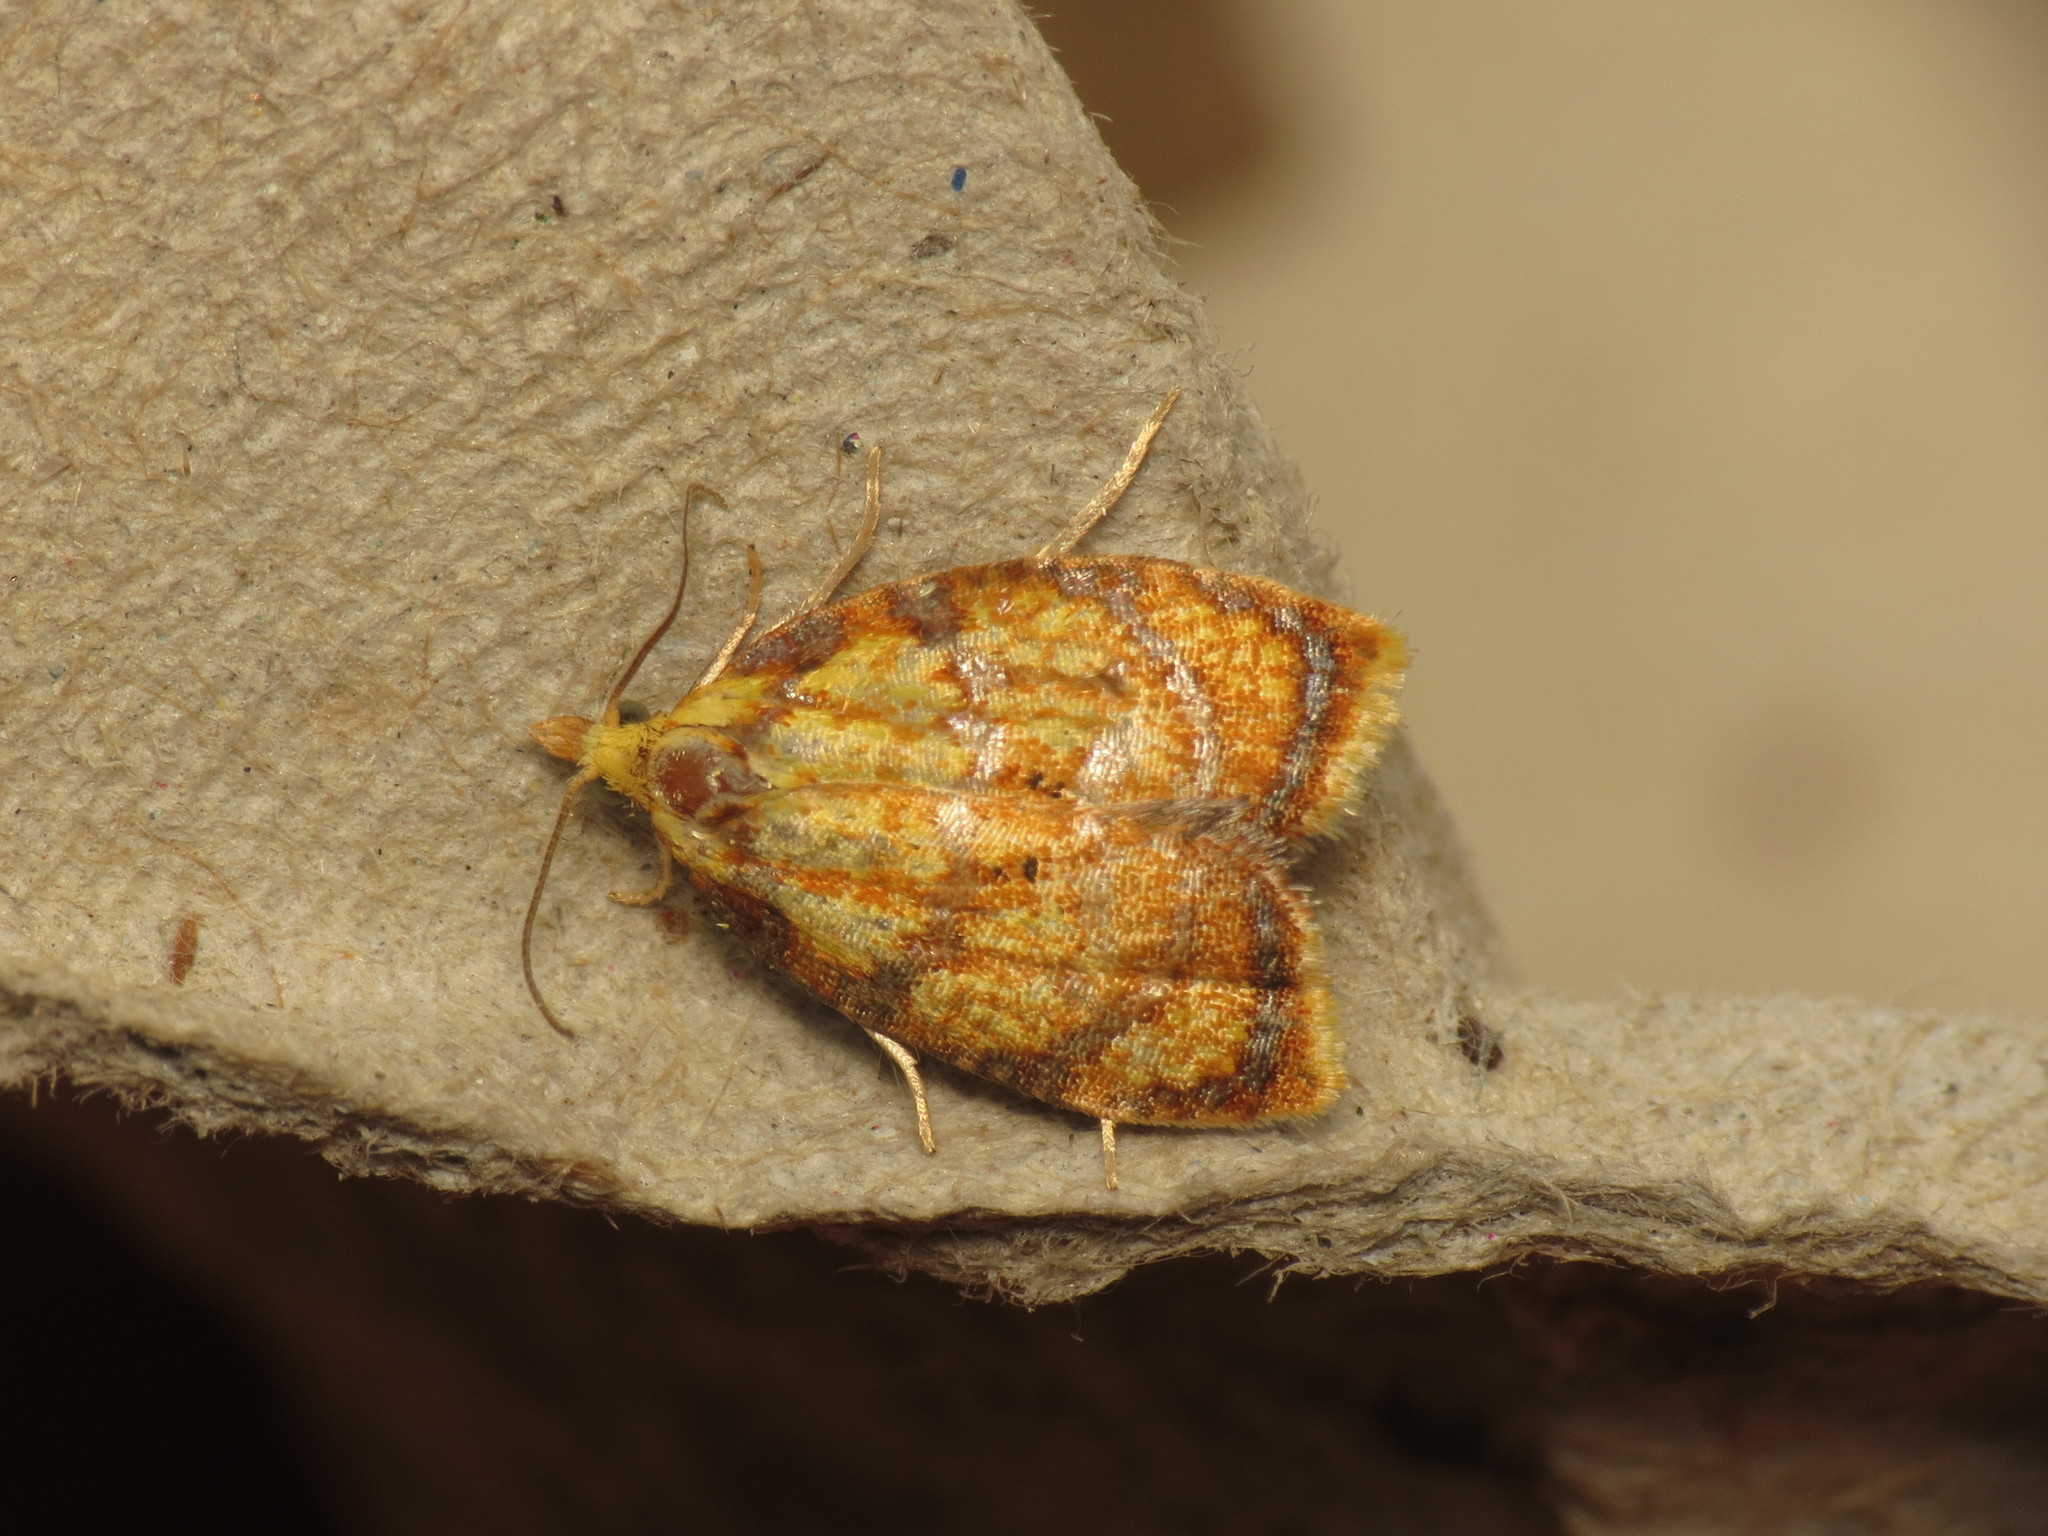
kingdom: Animalia
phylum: Arthropoda
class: Insecta
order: Lepidoptera
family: Tortricidae
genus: Acleris
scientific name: Acleris bergmanniana
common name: Yellow rose button
